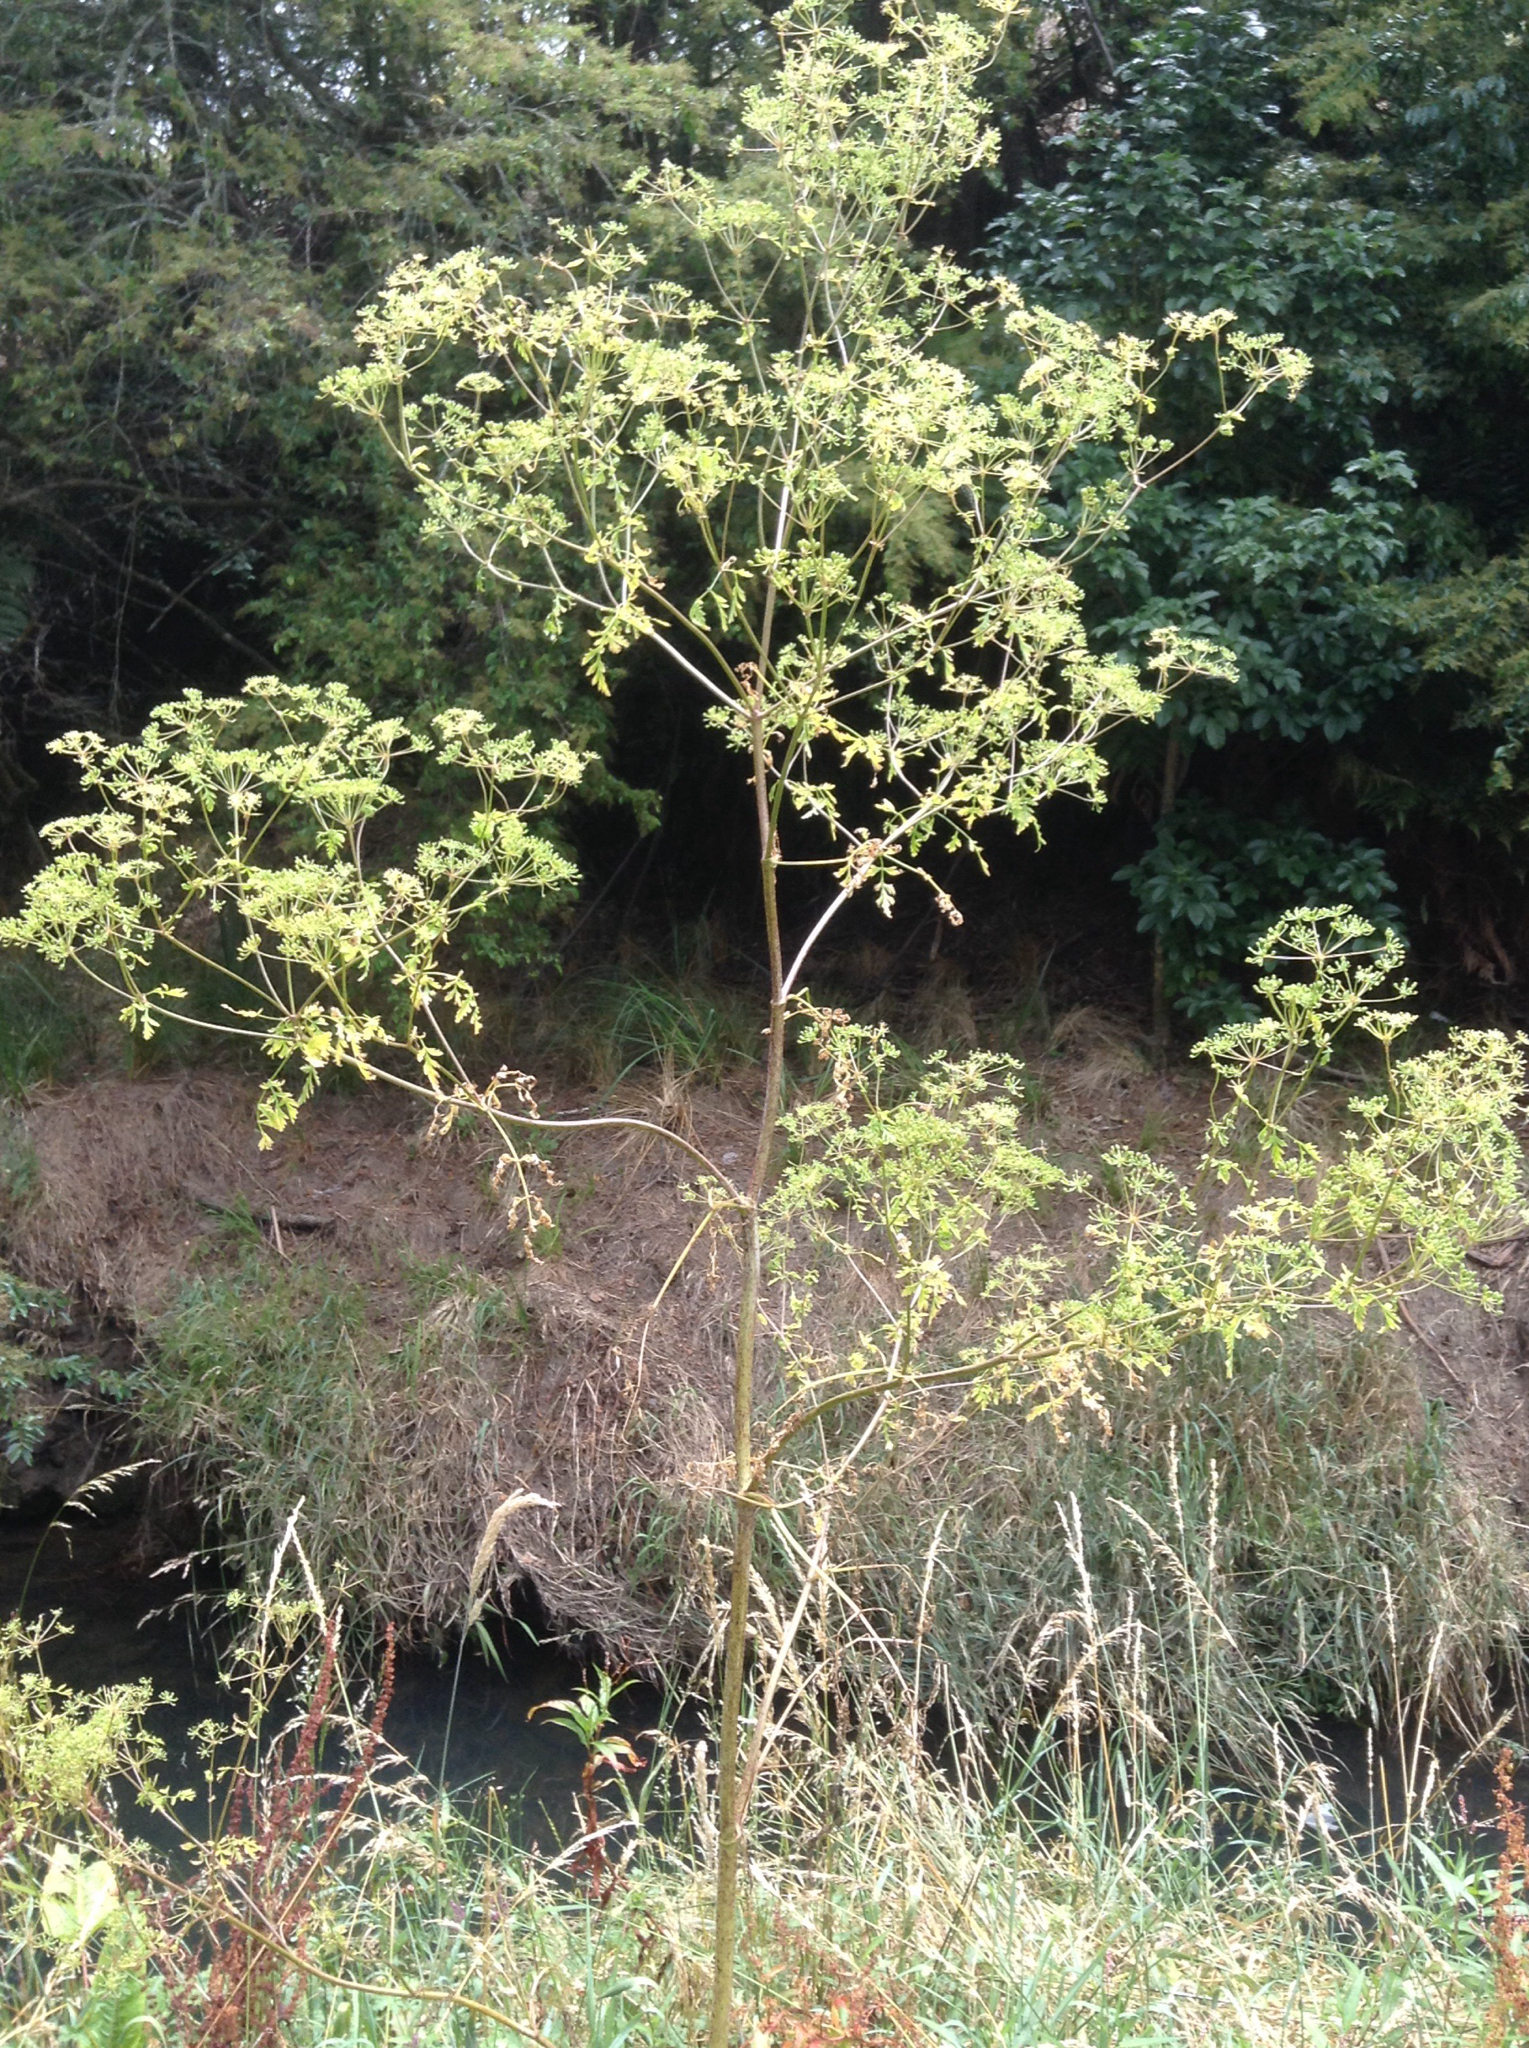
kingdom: Plantae
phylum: Tracheophyta
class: Magnoliopsida
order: Apiales
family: Apiaceae
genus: Conium
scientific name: Conium maculatum
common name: Hemlock
